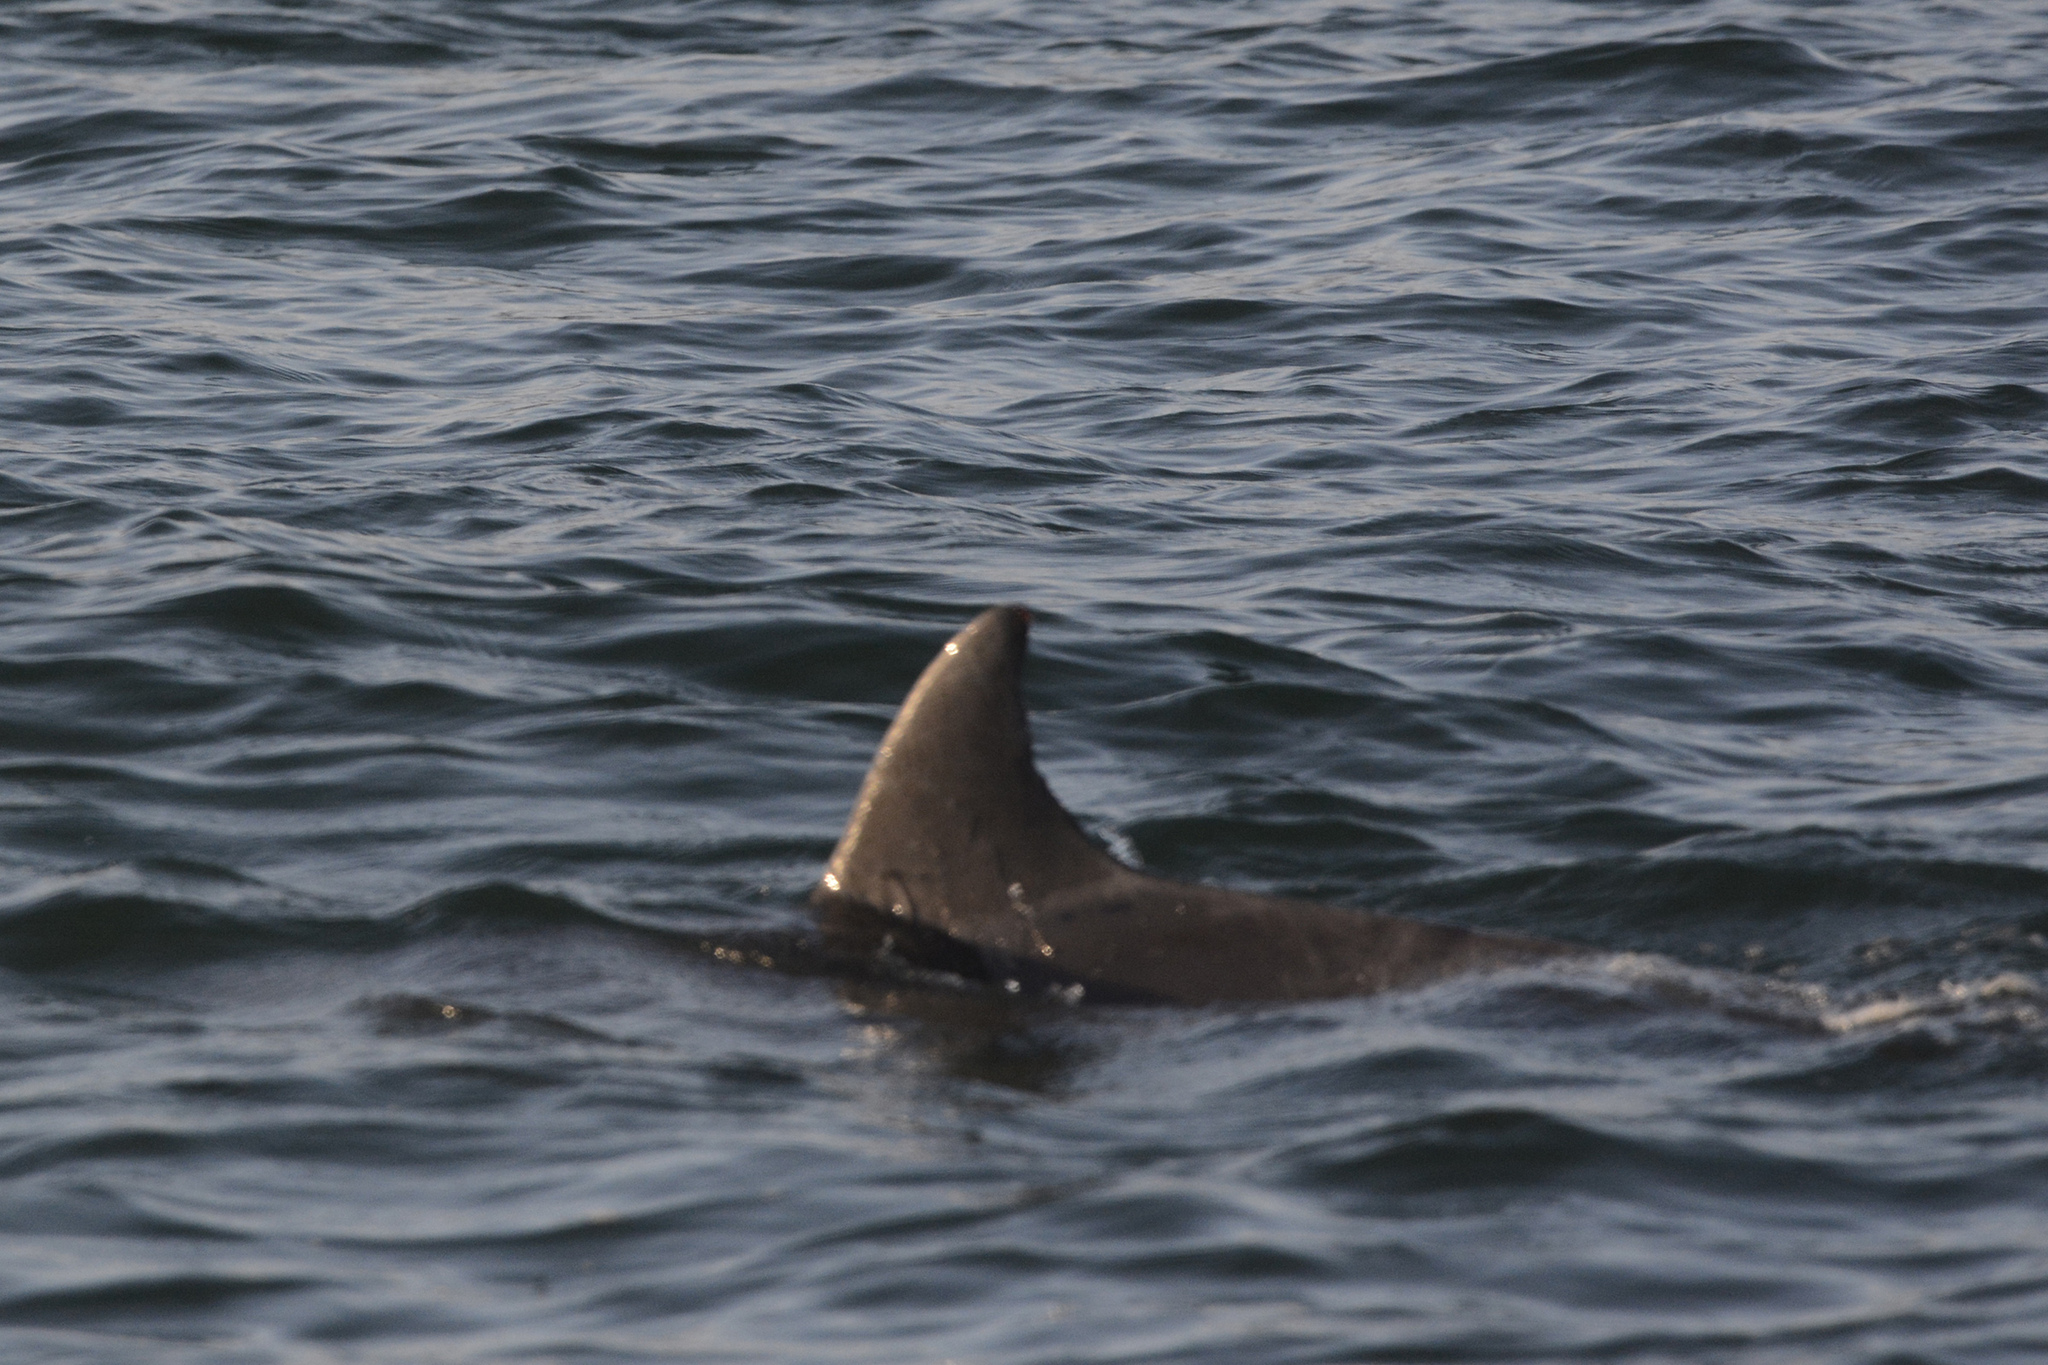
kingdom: Animalia
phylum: Chordata
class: Mammalia
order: Cetacea
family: Delphinidae
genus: Tursiops
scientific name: Tursiops aduncus
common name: Indo-pacific bottlenose dolphin
